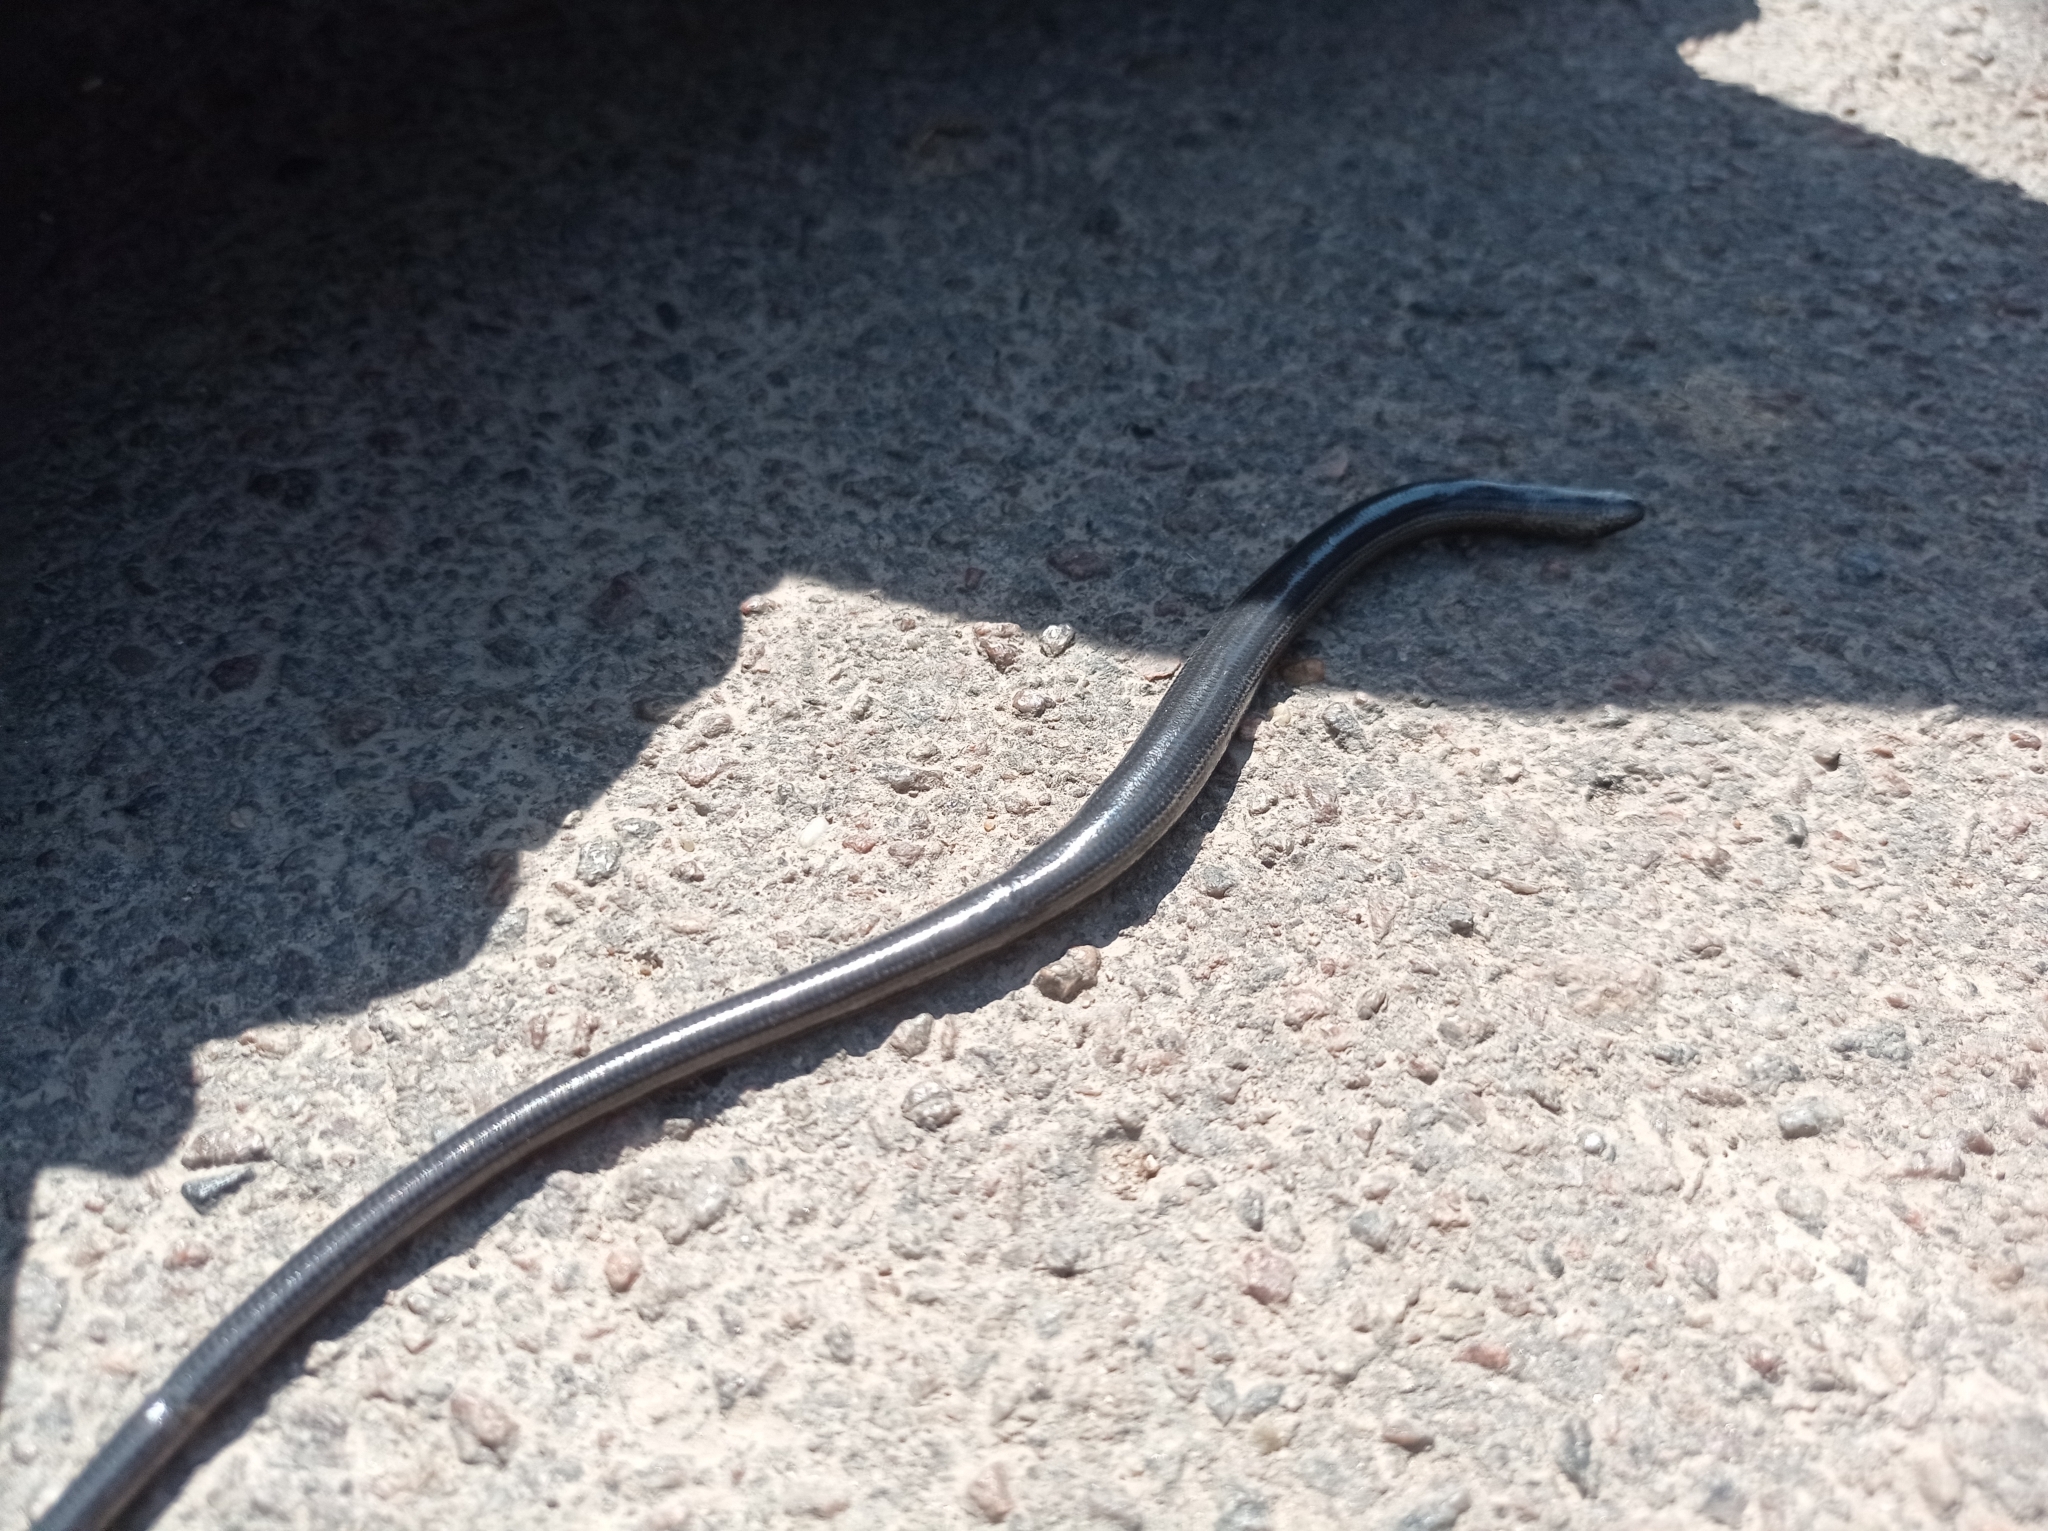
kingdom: Animalia
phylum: Chordata
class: Squamata
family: Anguidae
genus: Anguis
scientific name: Anguis colchica
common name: Slow worm
